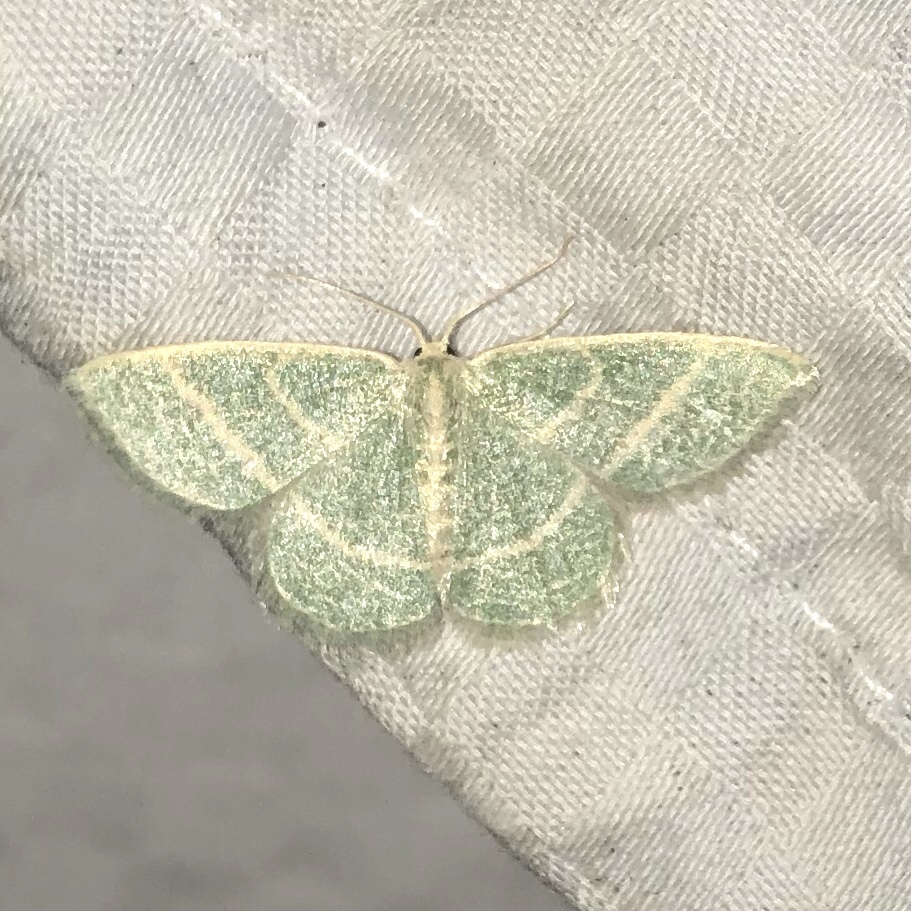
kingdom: Animalia
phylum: Arthropoda
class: Insecta
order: Lepidoptera
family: Geometridae
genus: Chlorochlamys
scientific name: Chlorochlamys chloroleucaria
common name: Blackberry looper
